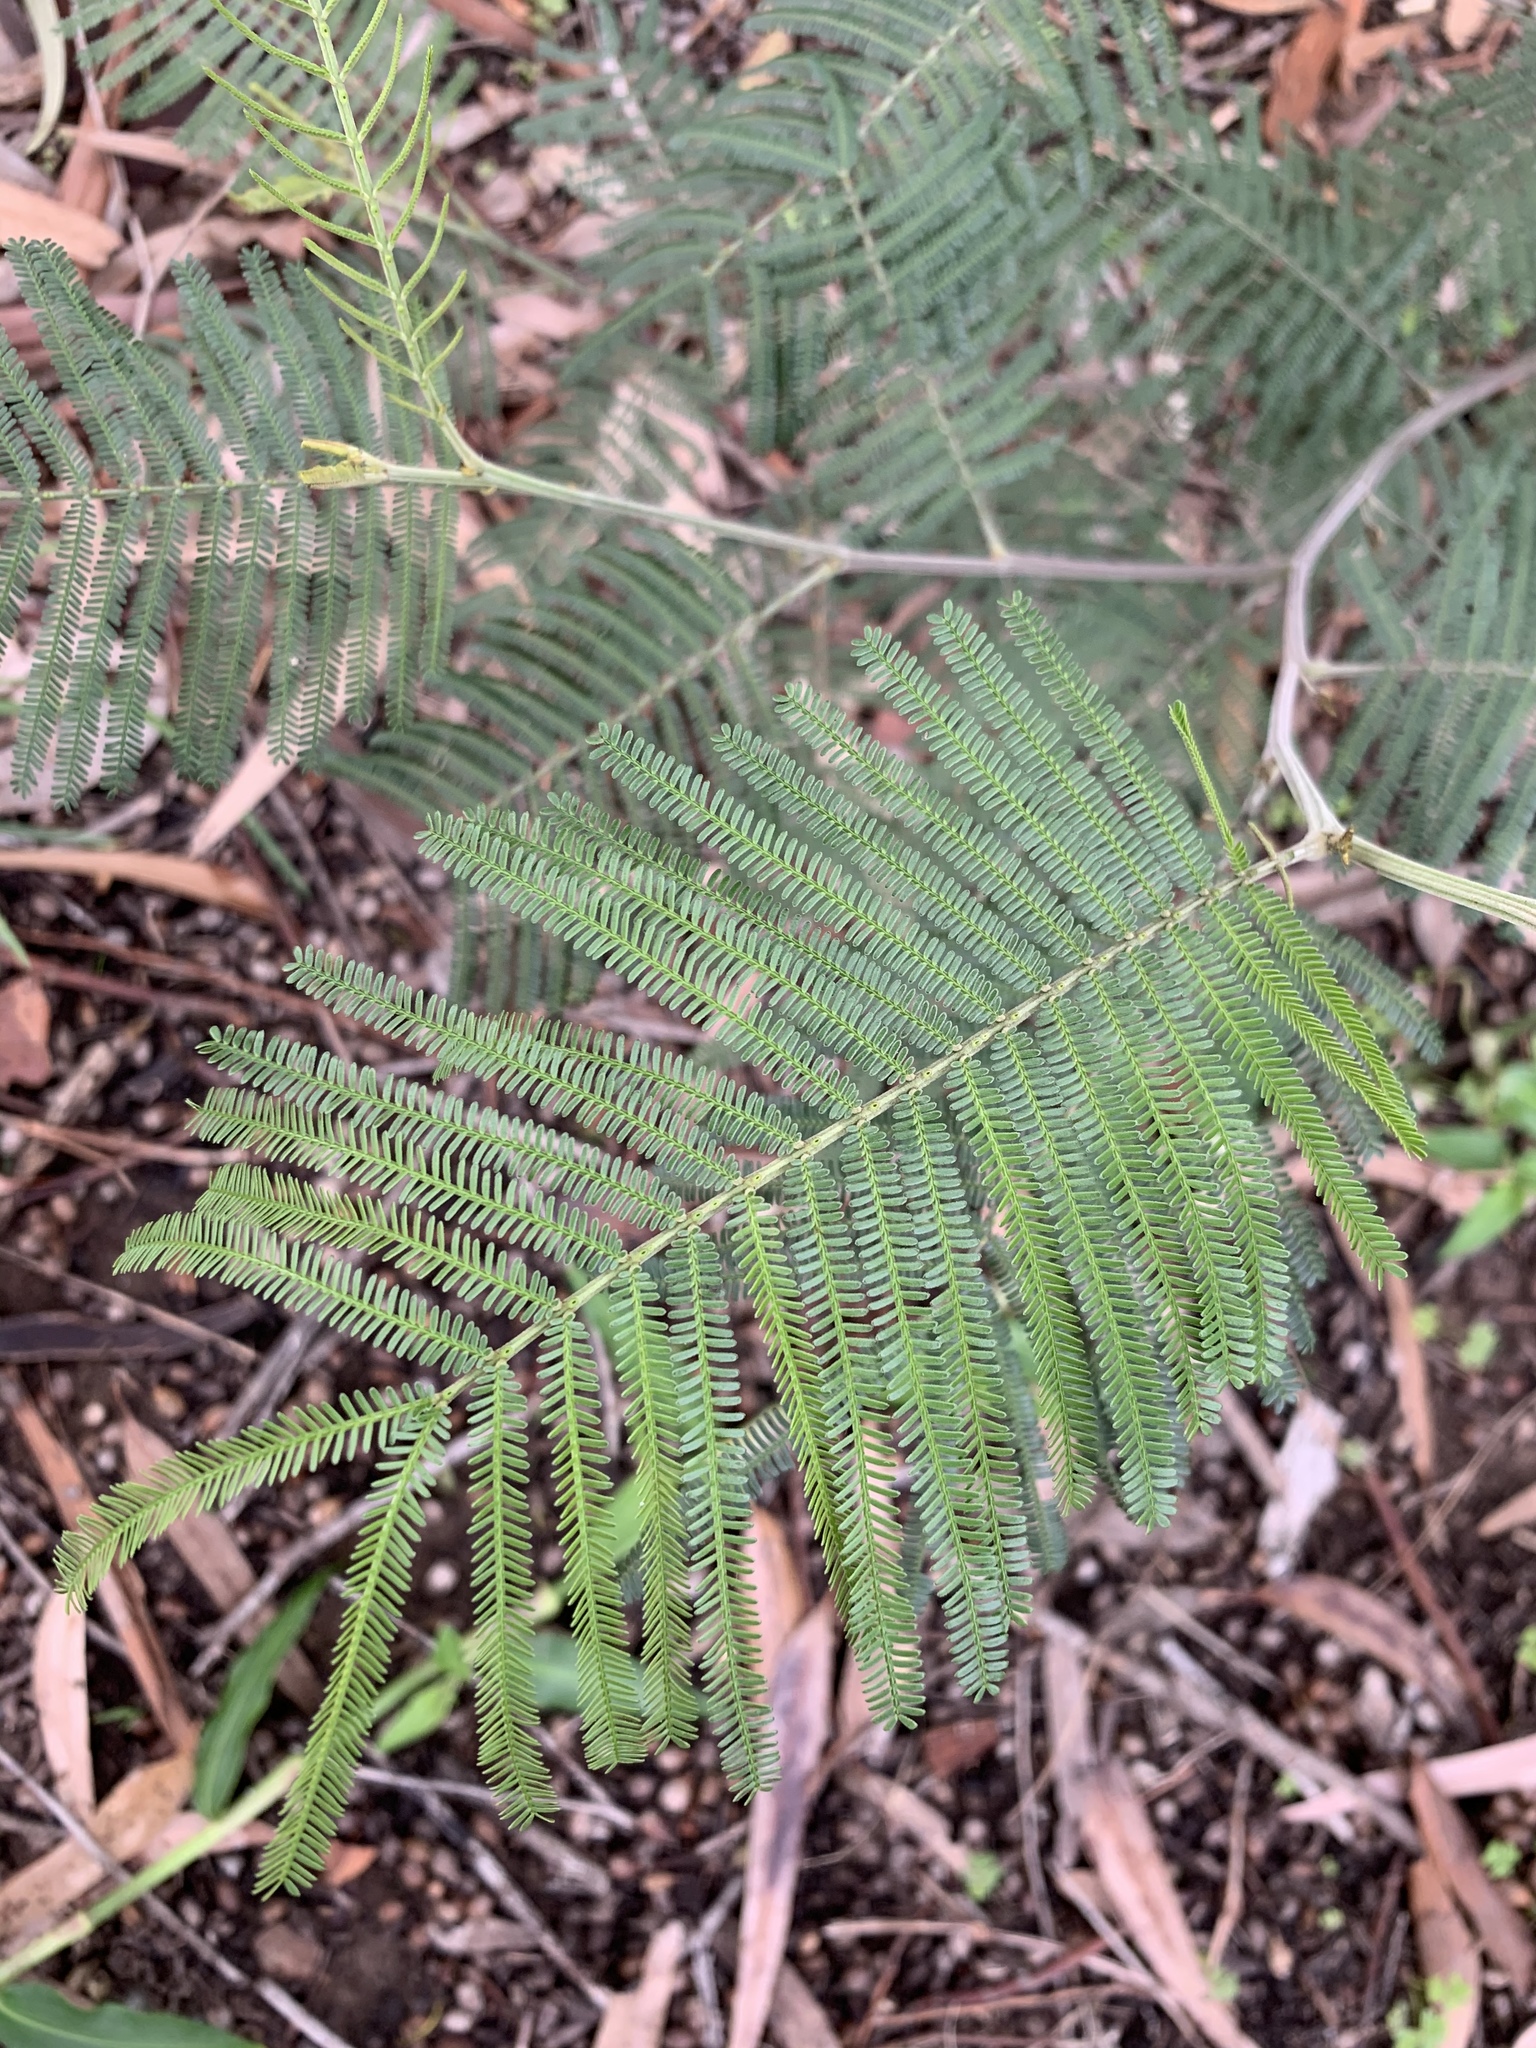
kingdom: Plantae
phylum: Tracheophyta
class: Magnoliopsida
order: Fabales
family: Fabaceae
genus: Acacia
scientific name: Acacia mearnsii
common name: Black wattle
